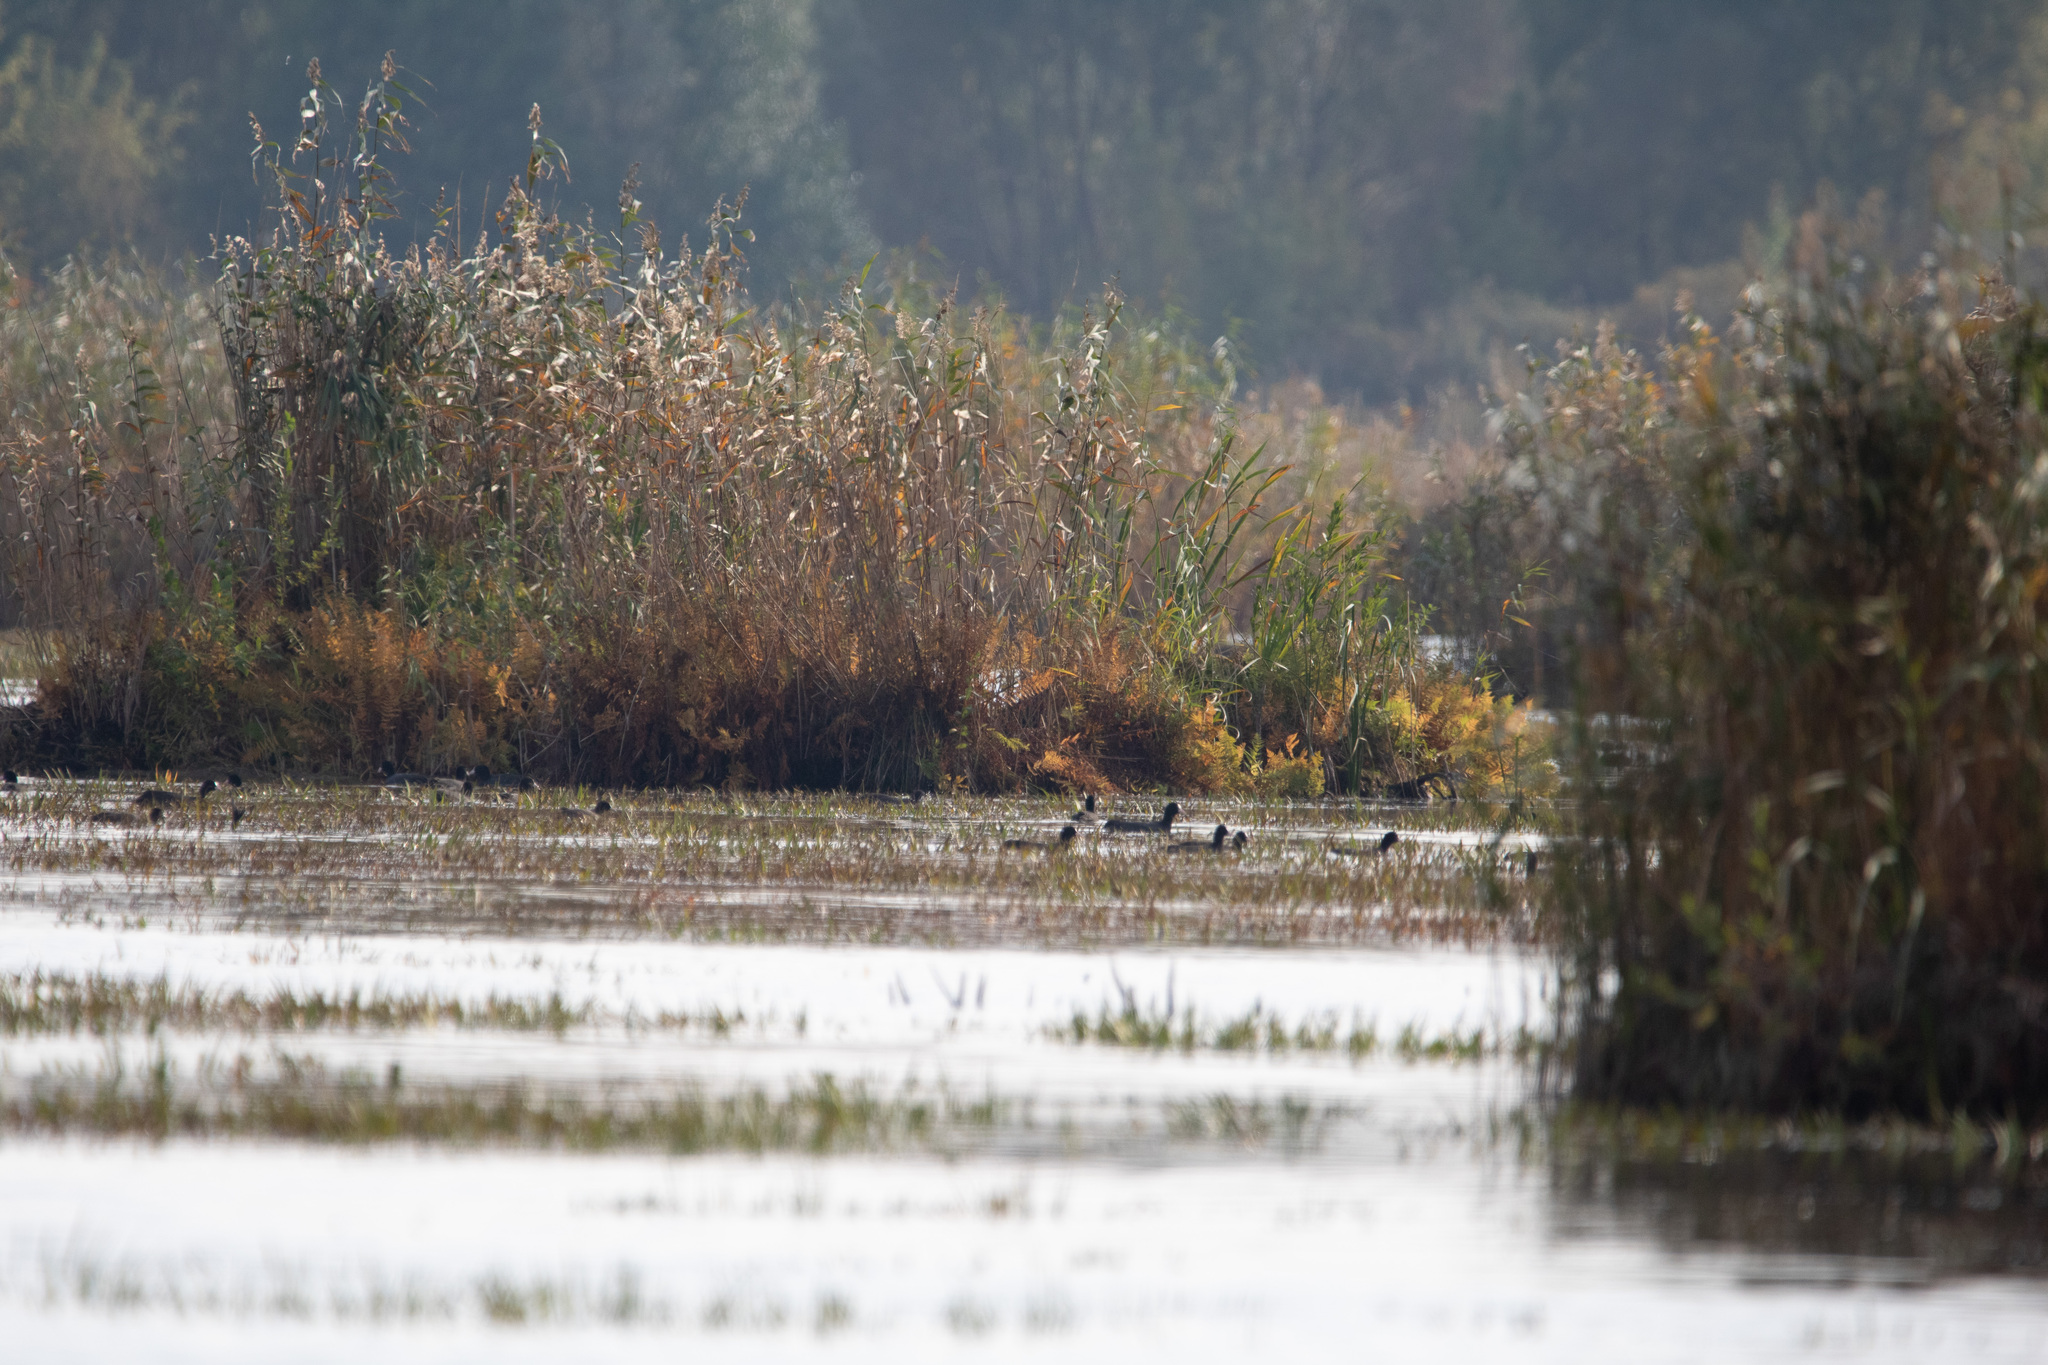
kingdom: Animalia
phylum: Chordata
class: Aves
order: Gruiformes
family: Rallidae
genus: Fulica
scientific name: Fulica atra
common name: Eurasian coot
